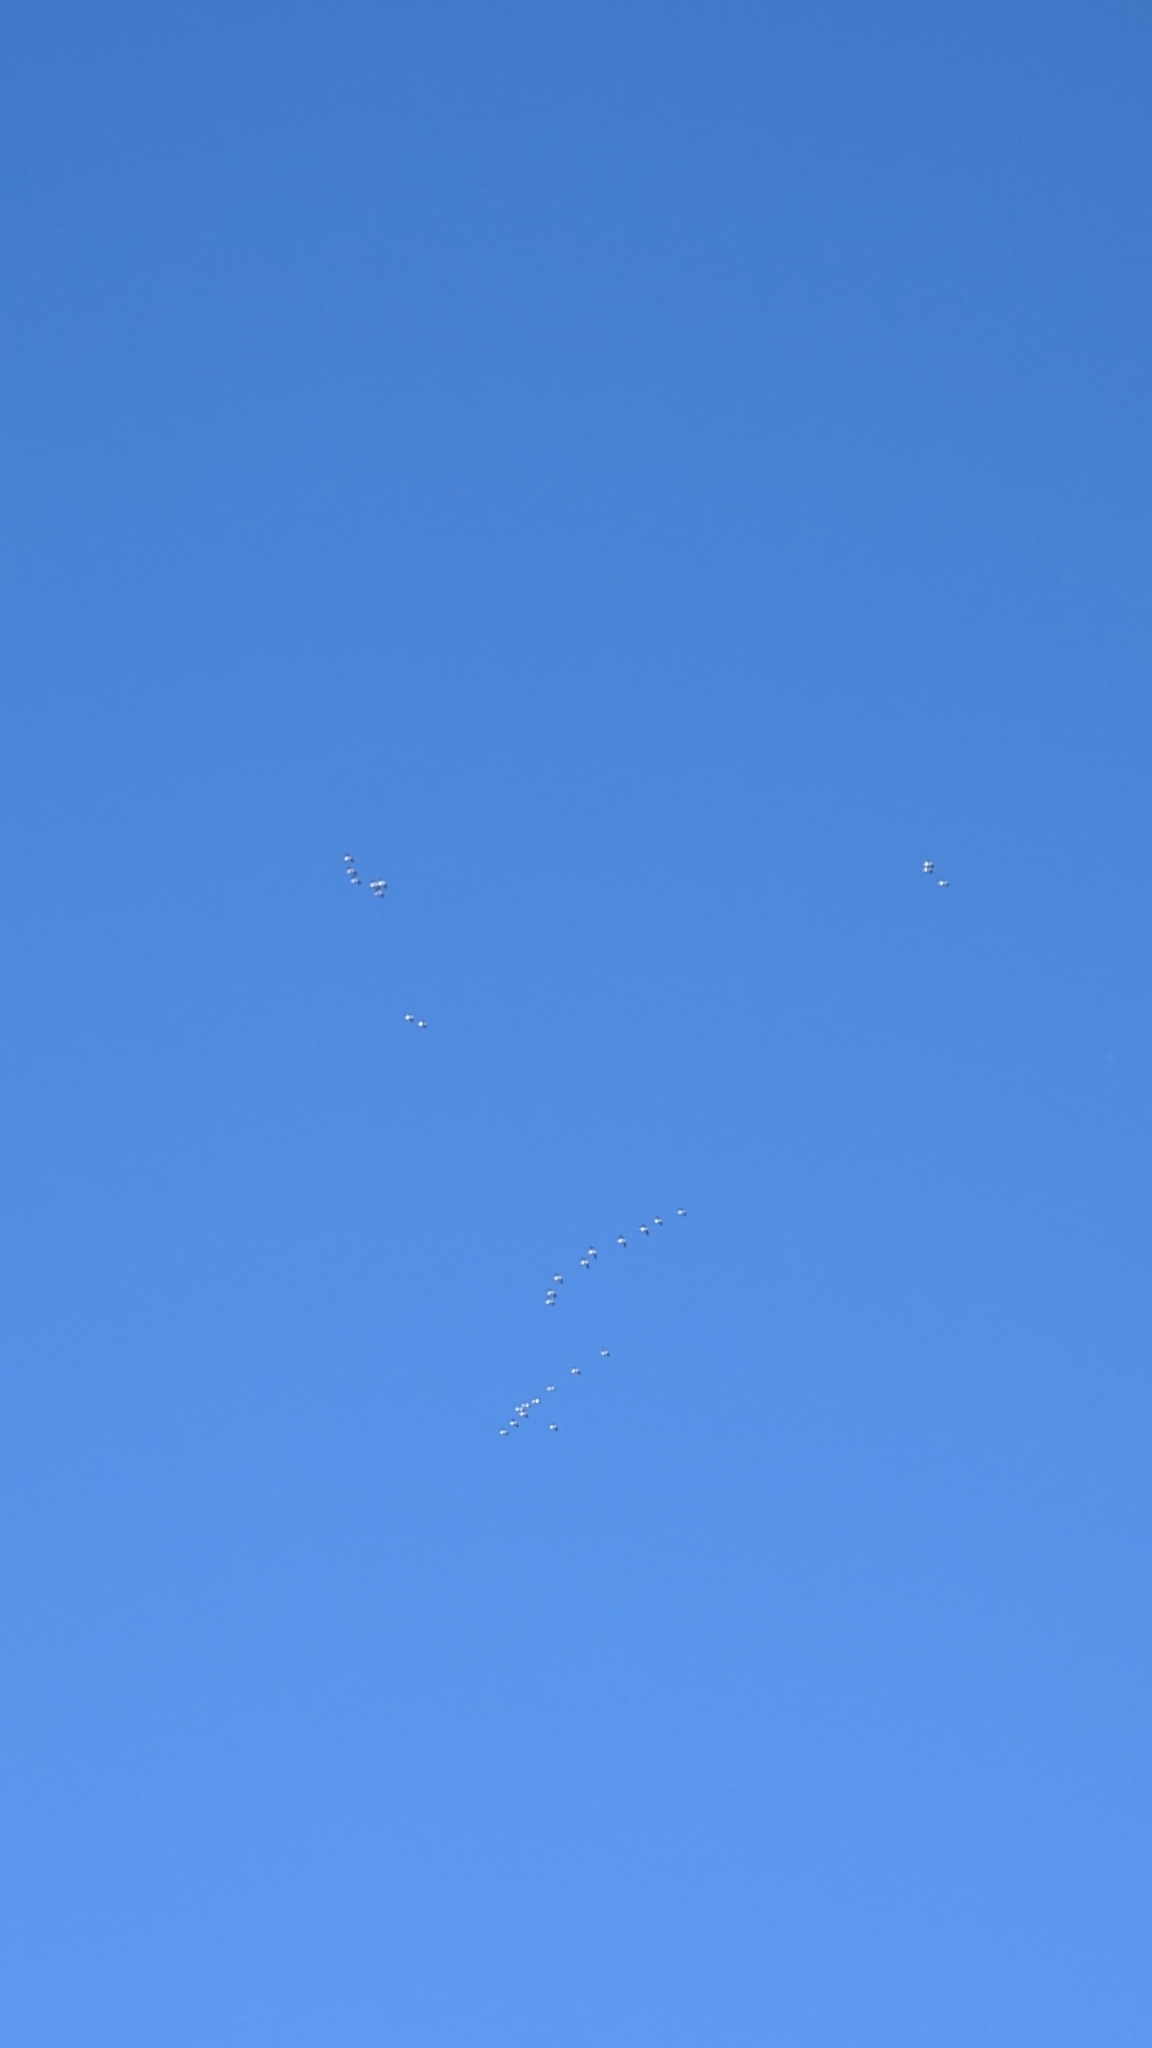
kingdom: Animalia
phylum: Chordata
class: Aves
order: Pelecaniformes
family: Pelecanidae
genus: Pelecanus
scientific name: Pelecanus erythrorhynchos
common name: American white pelican
